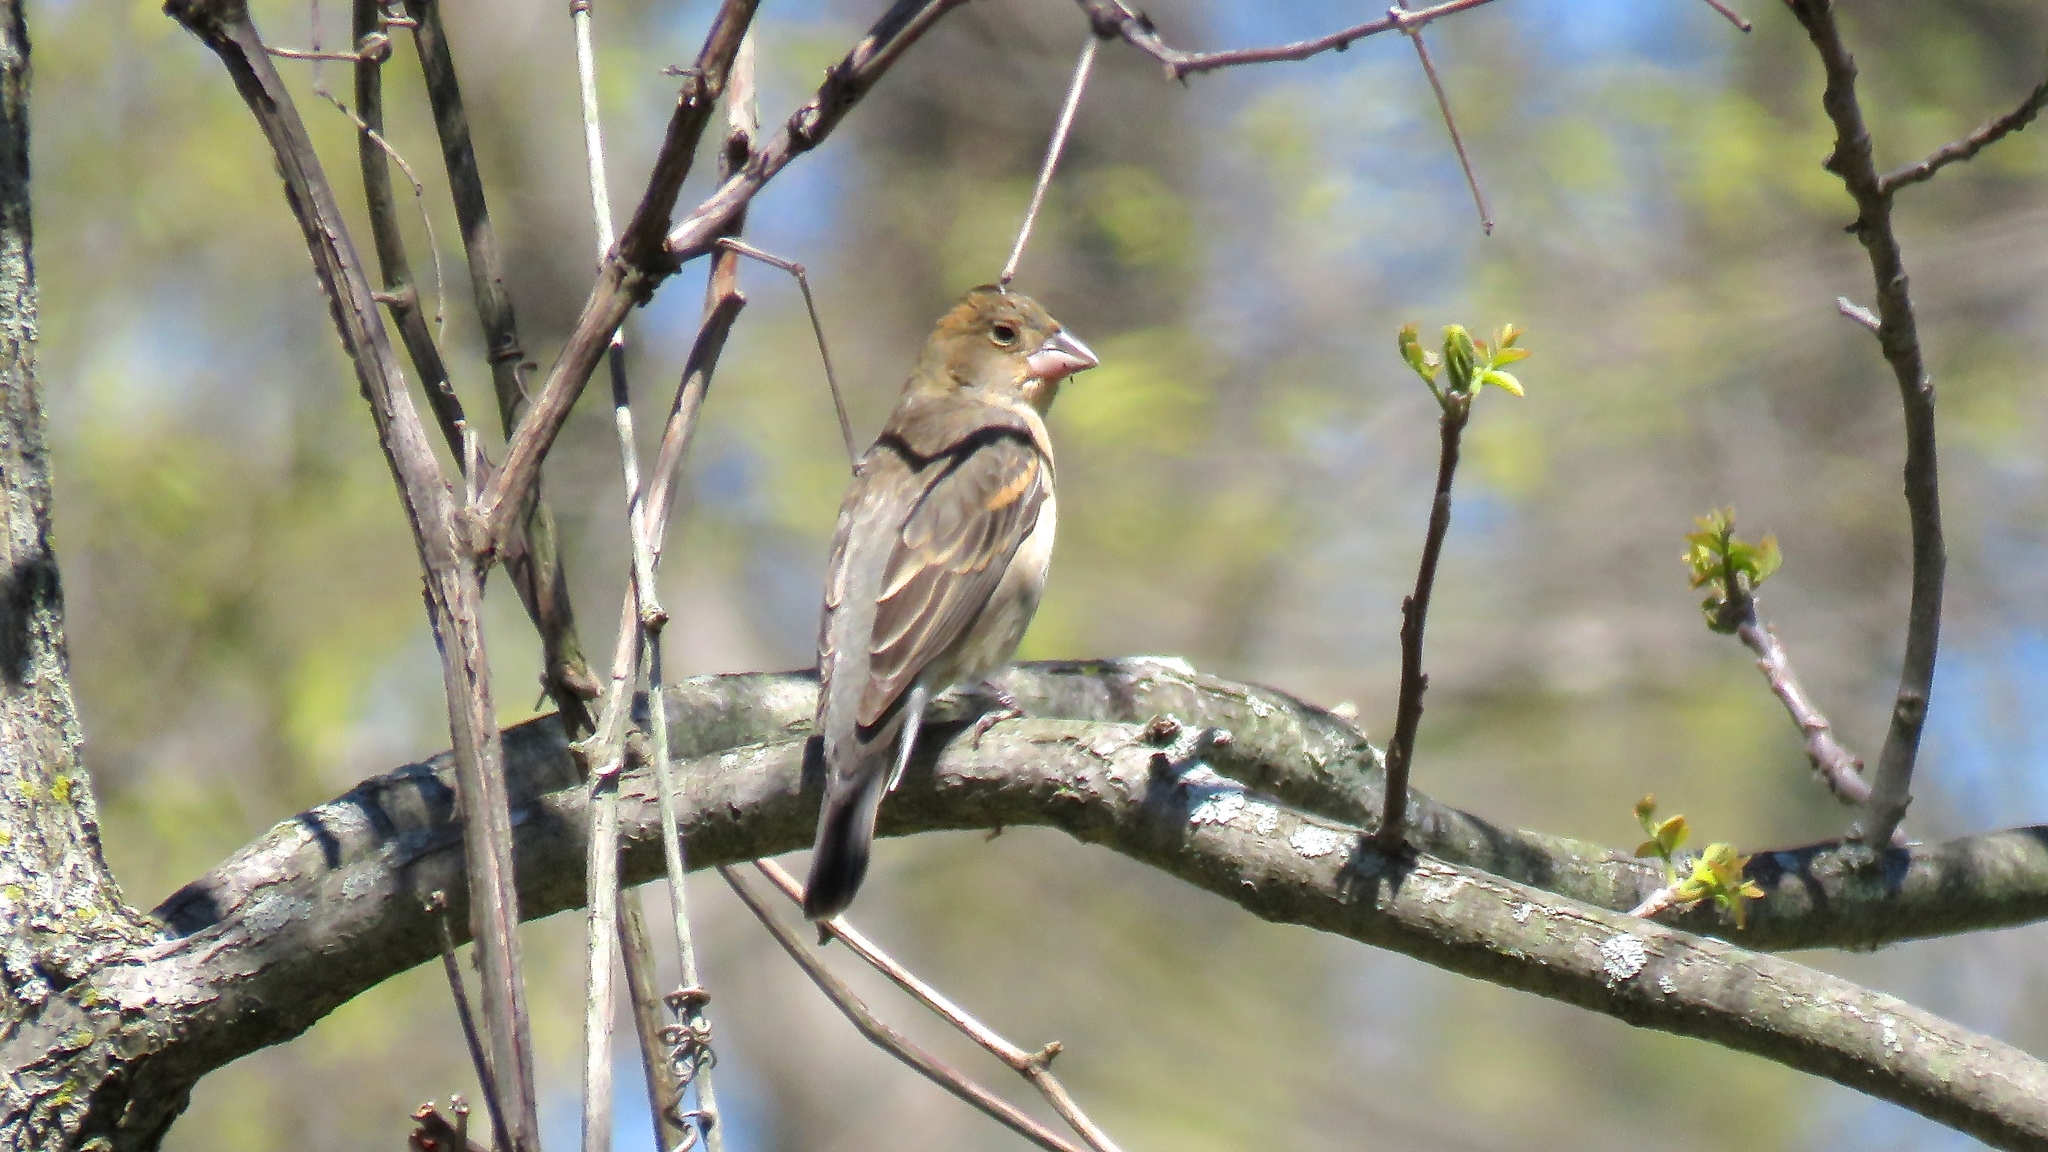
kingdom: Animalia
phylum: Chordata
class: Aves
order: Passeriformes
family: Cardinalidae
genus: Passerina
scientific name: Passerina caerulea
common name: Blue grosbeak
